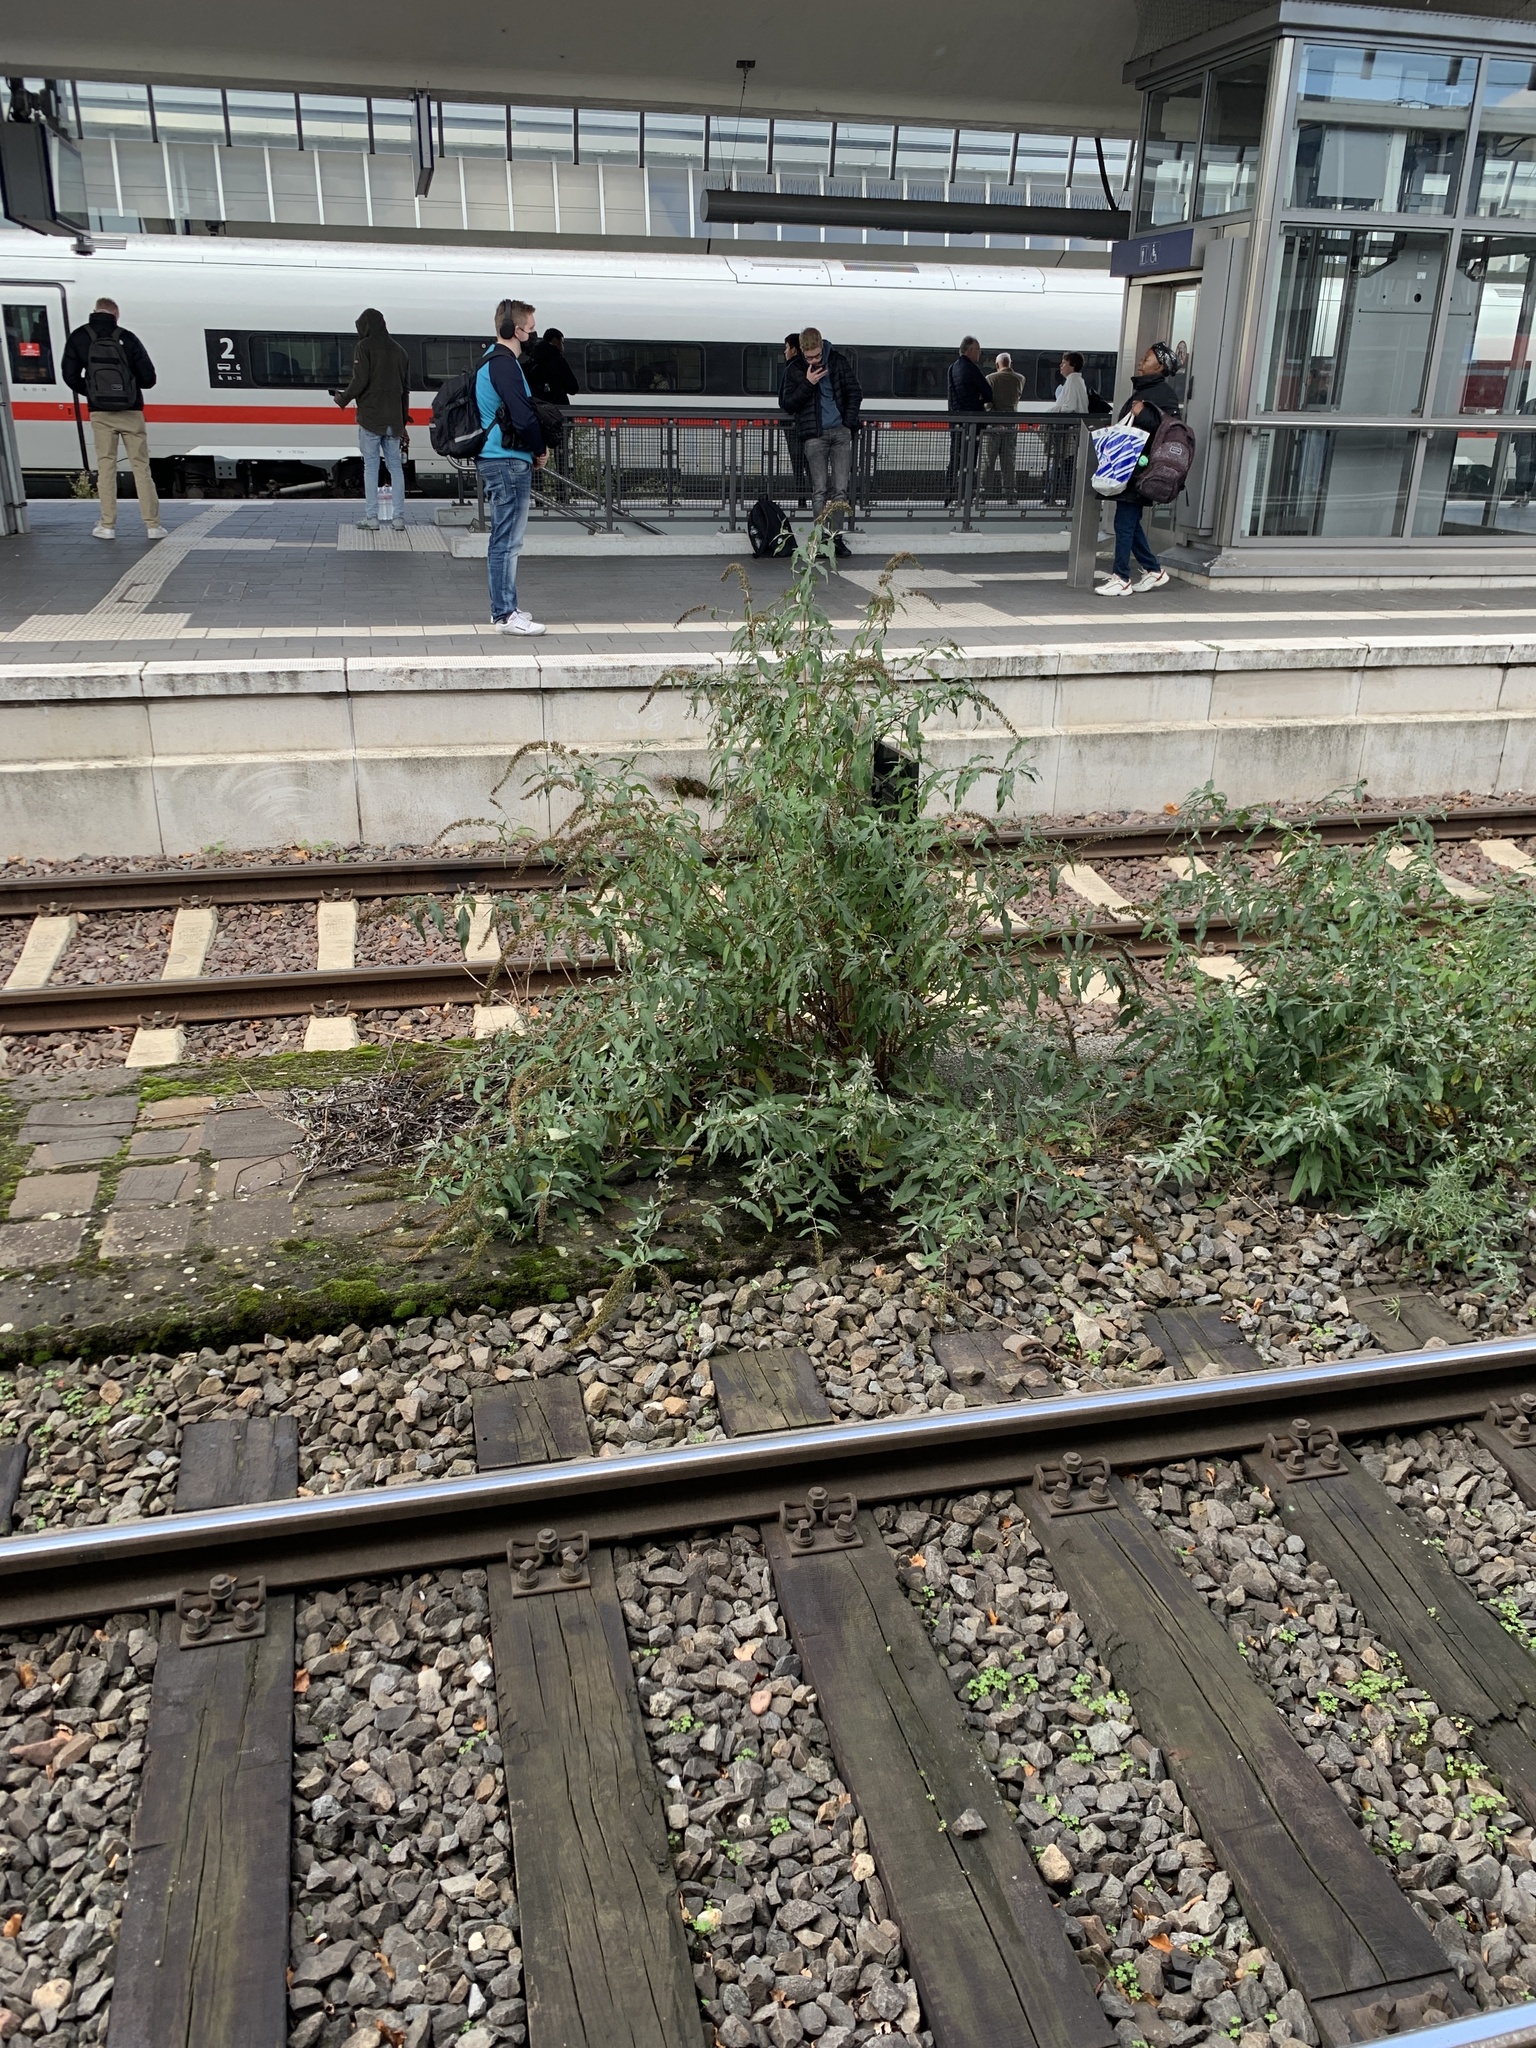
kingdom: Plantae
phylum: Tracheophyta
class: Magnoliopsida
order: Lamiales
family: Scrophulariaceae
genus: Buddleja
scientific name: Buddleja davidii
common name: Butterfly-bush
